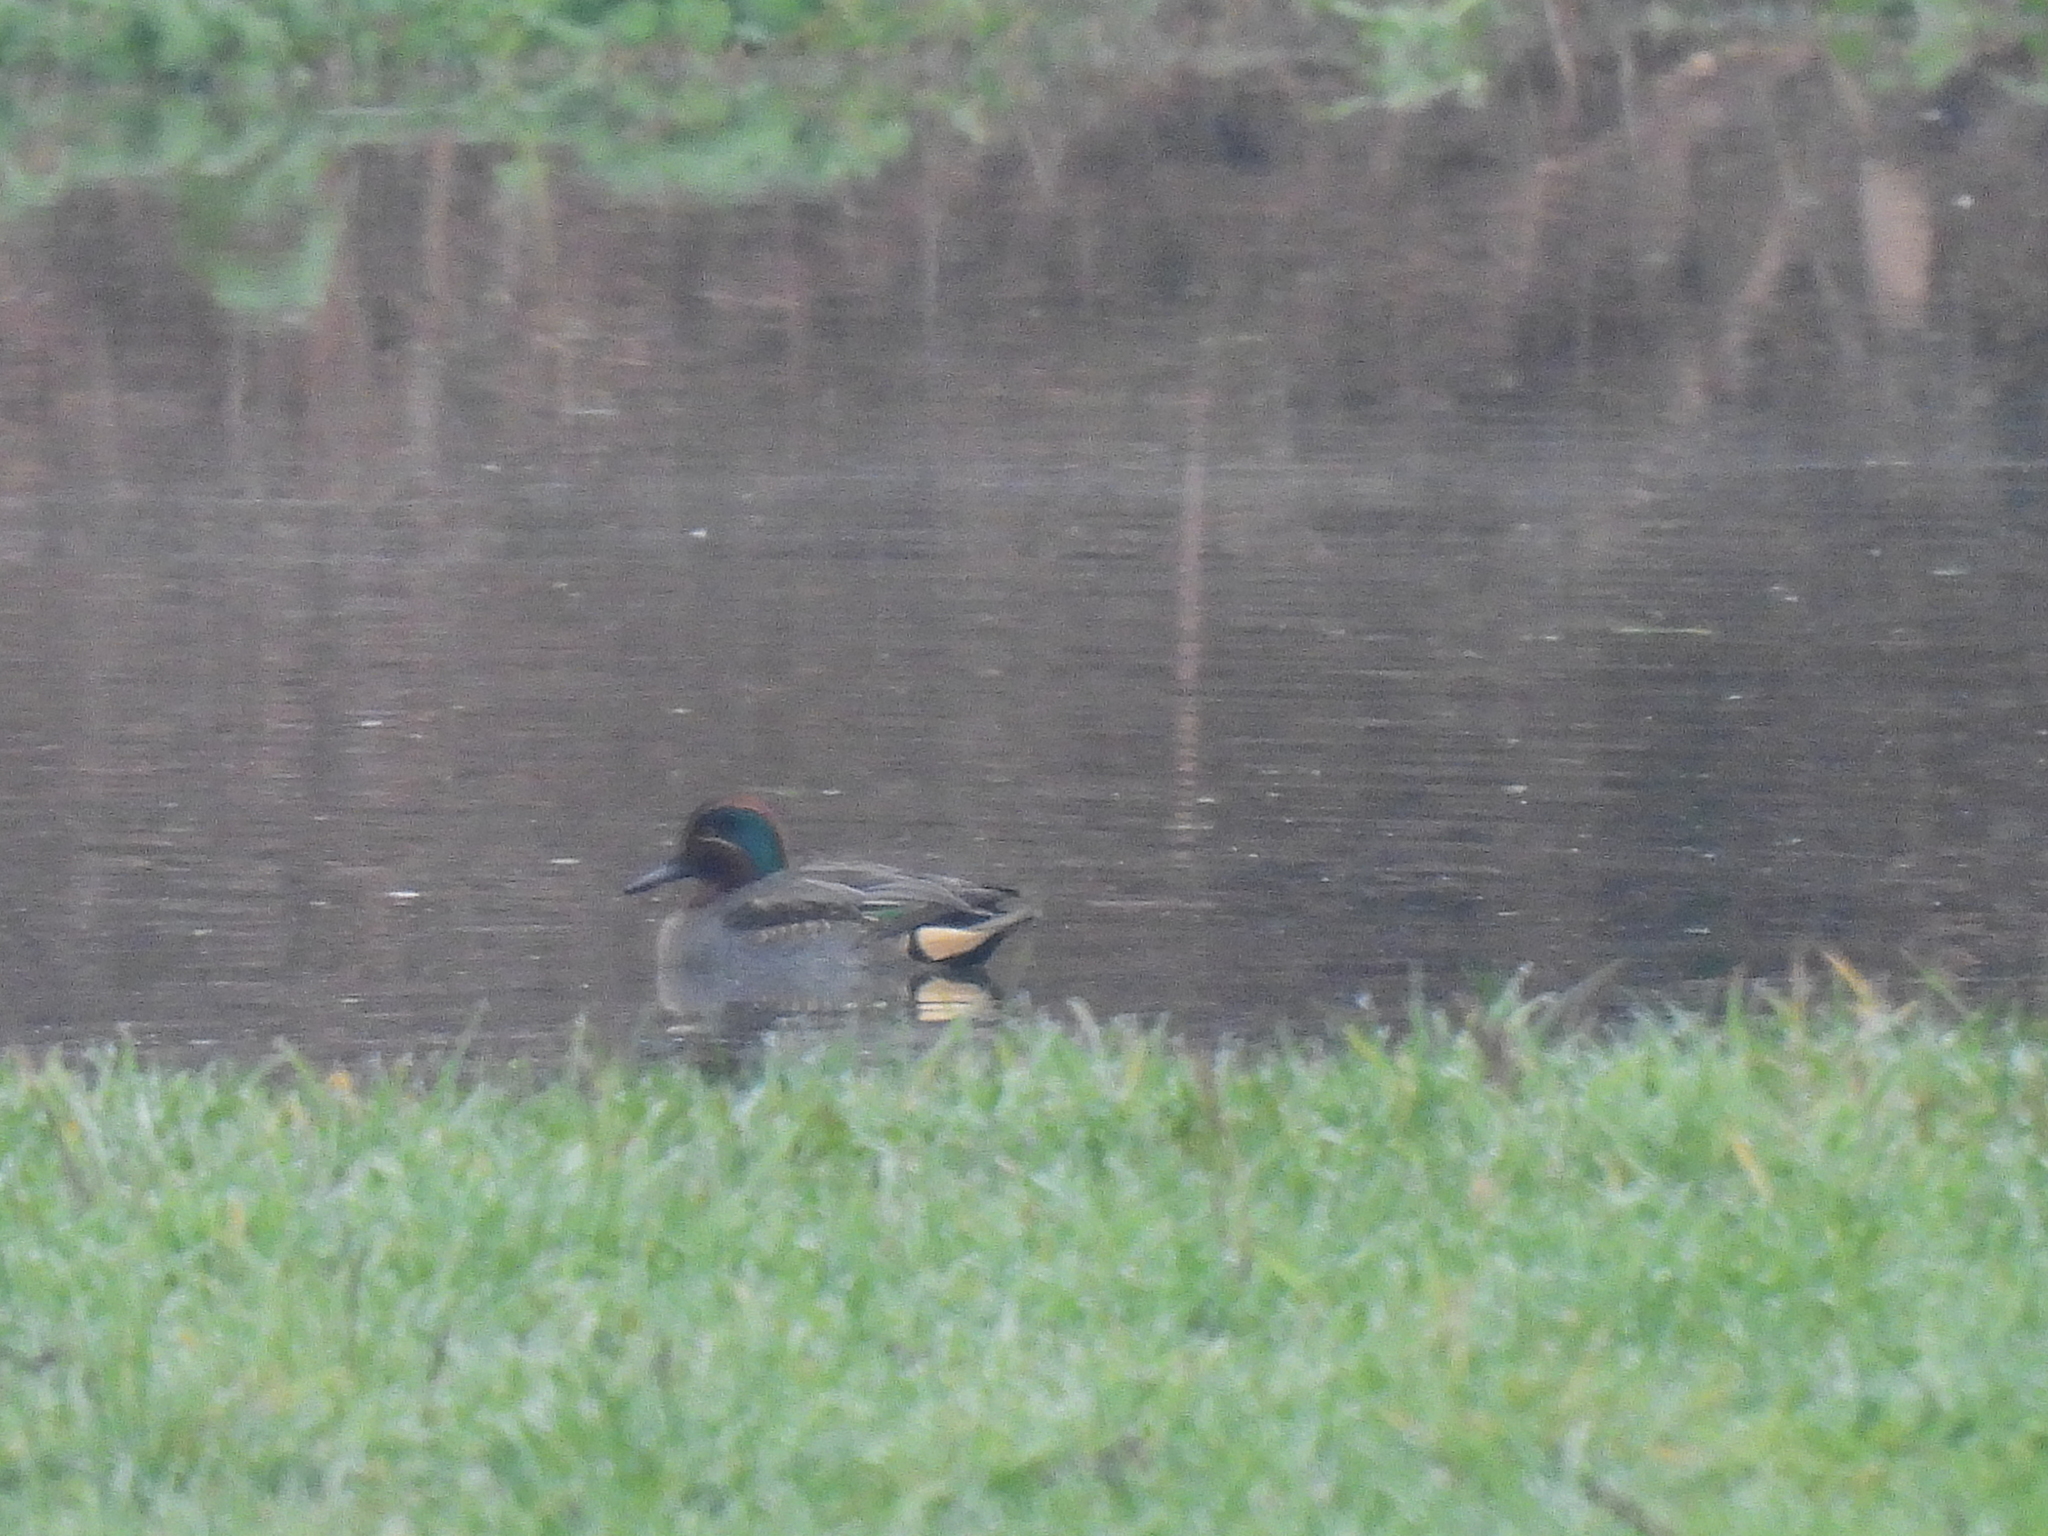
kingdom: Animalia
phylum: Chordata
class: Aves
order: Anseriformes
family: Anatidae
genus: Anas
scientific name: Anas crecca
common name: Eurasian teal
